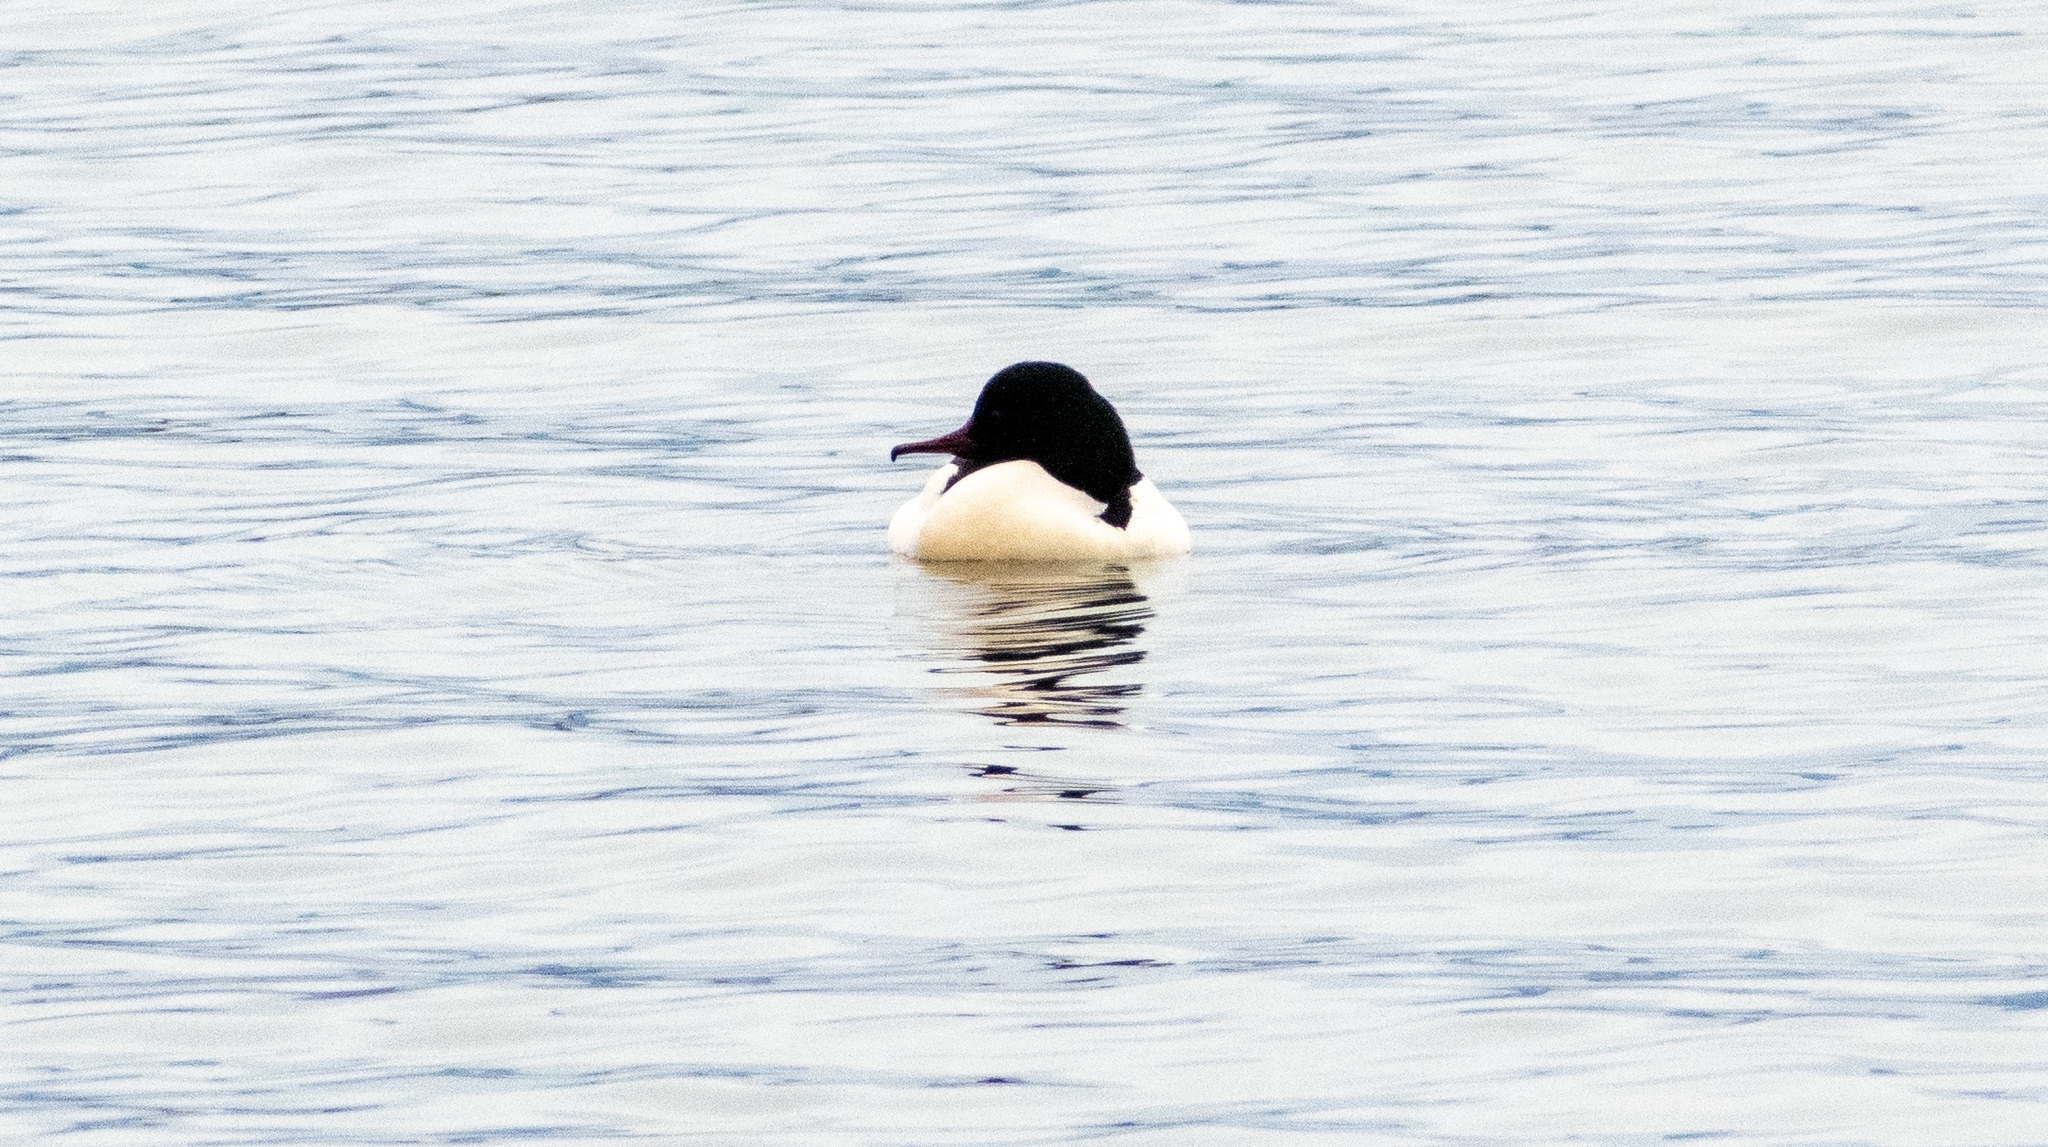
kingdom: Animalia
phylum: Chordata
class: Aves
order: Anseriformes
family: Anatidae
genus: Mergus
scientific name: Mergus merganser
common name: Common merganser
